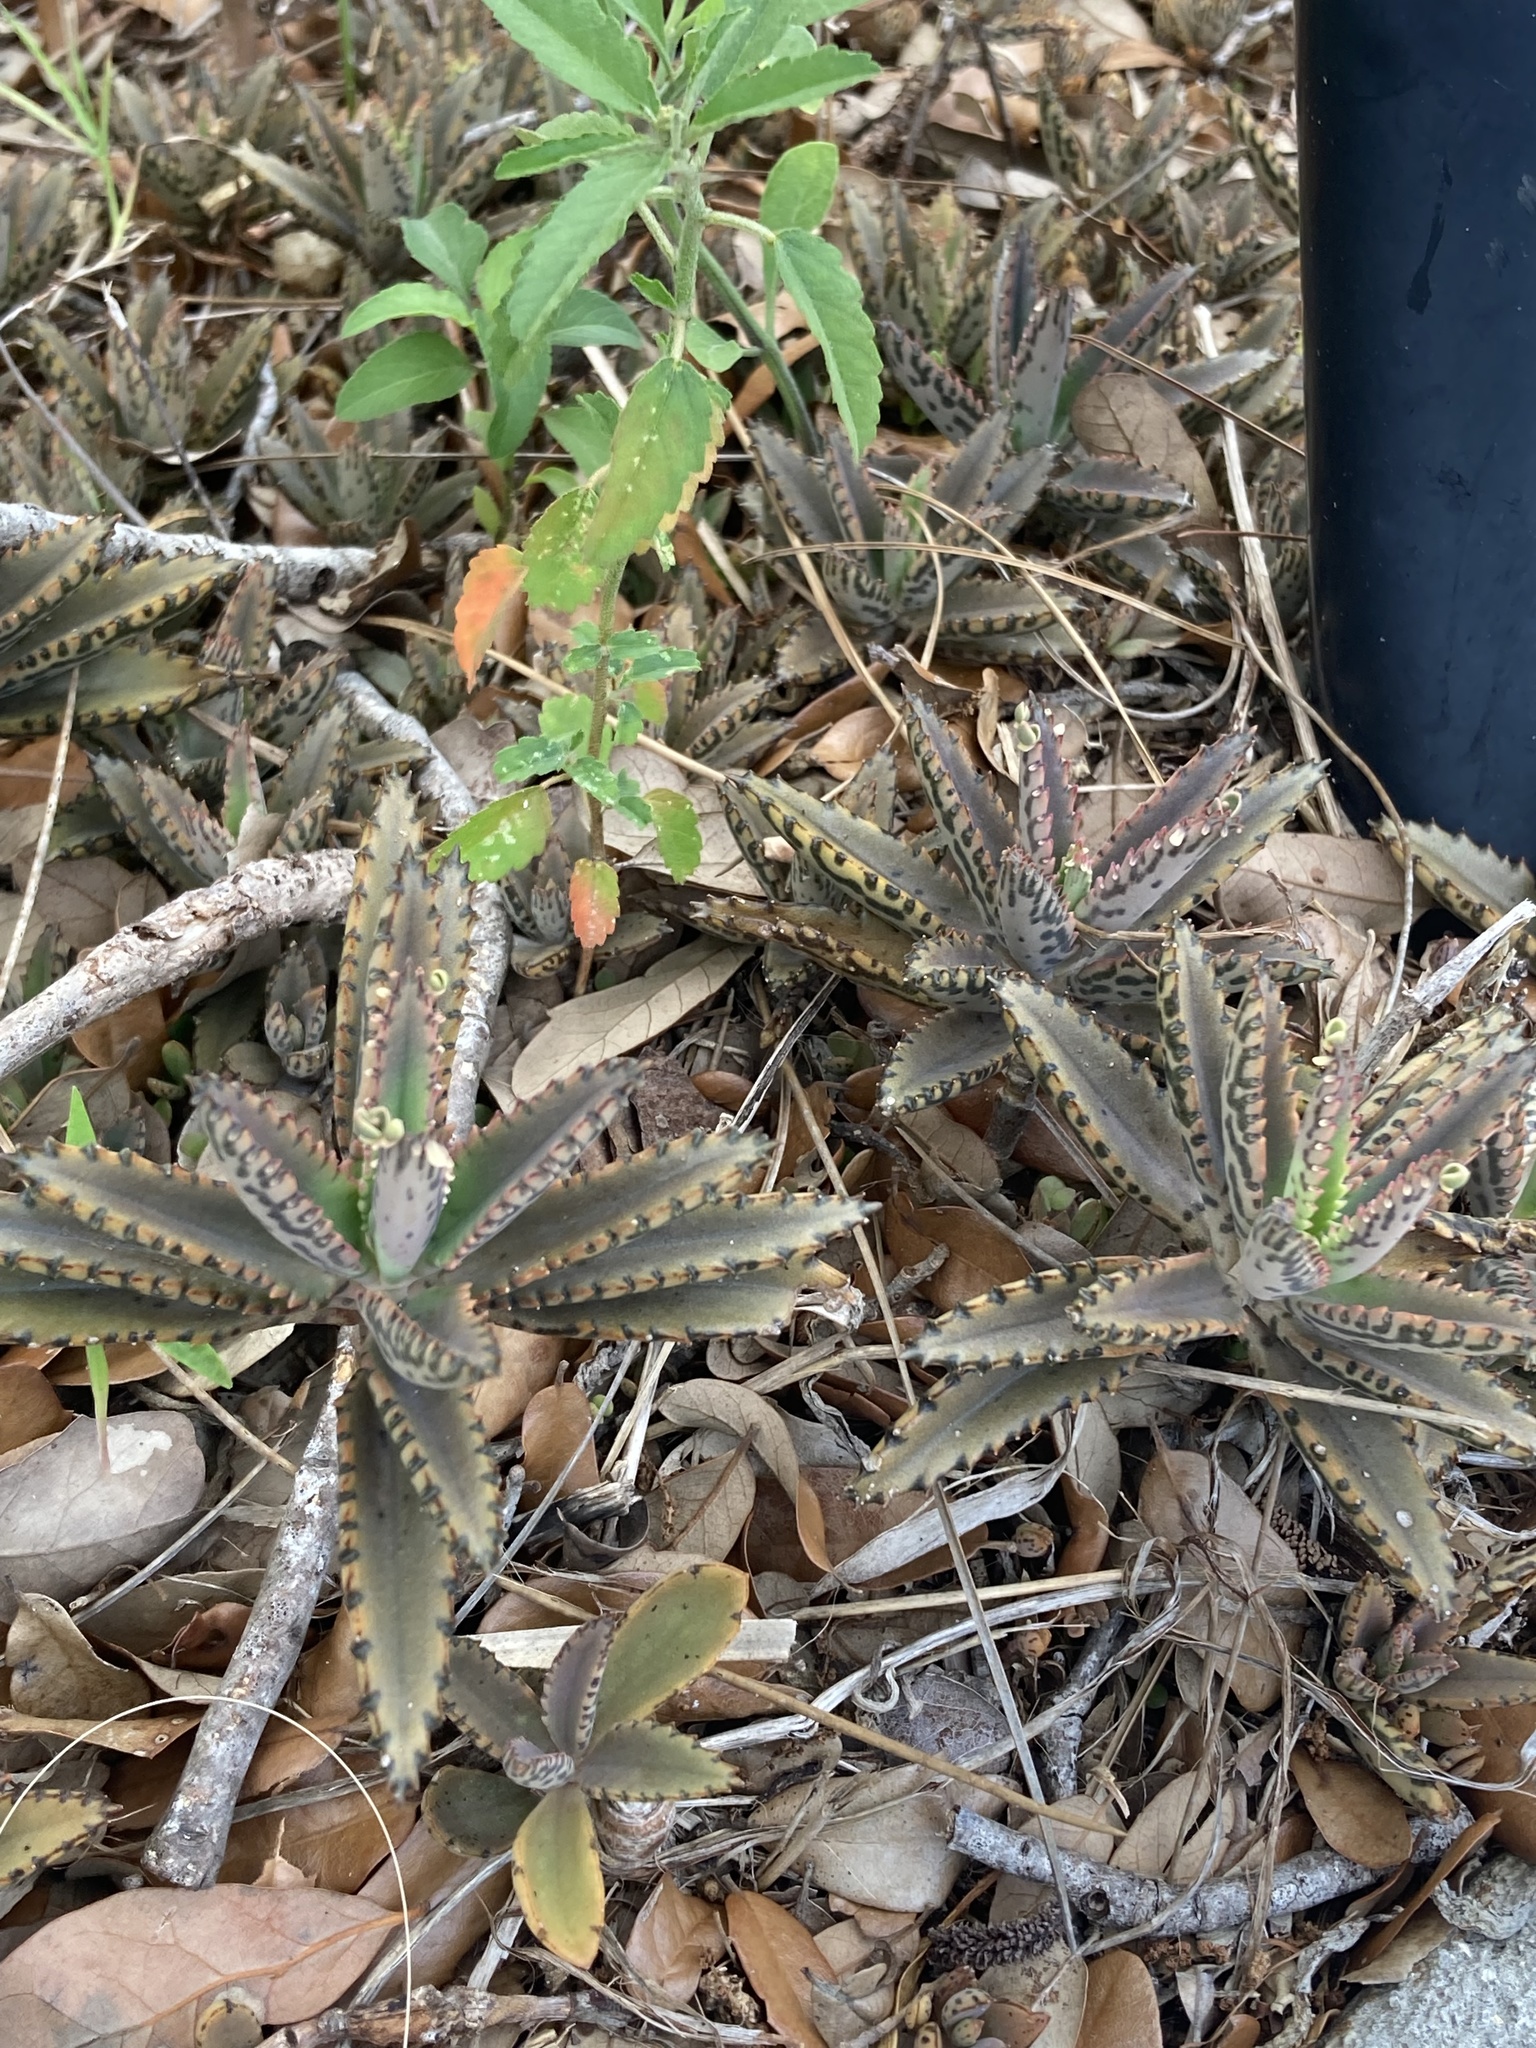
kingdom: Plantae
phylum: Tracheophyta
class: Magnoliopsida
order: Saxifragales
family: Crassulaceae
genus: Kalanchoe
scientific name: Kalanchoe houghtonii
